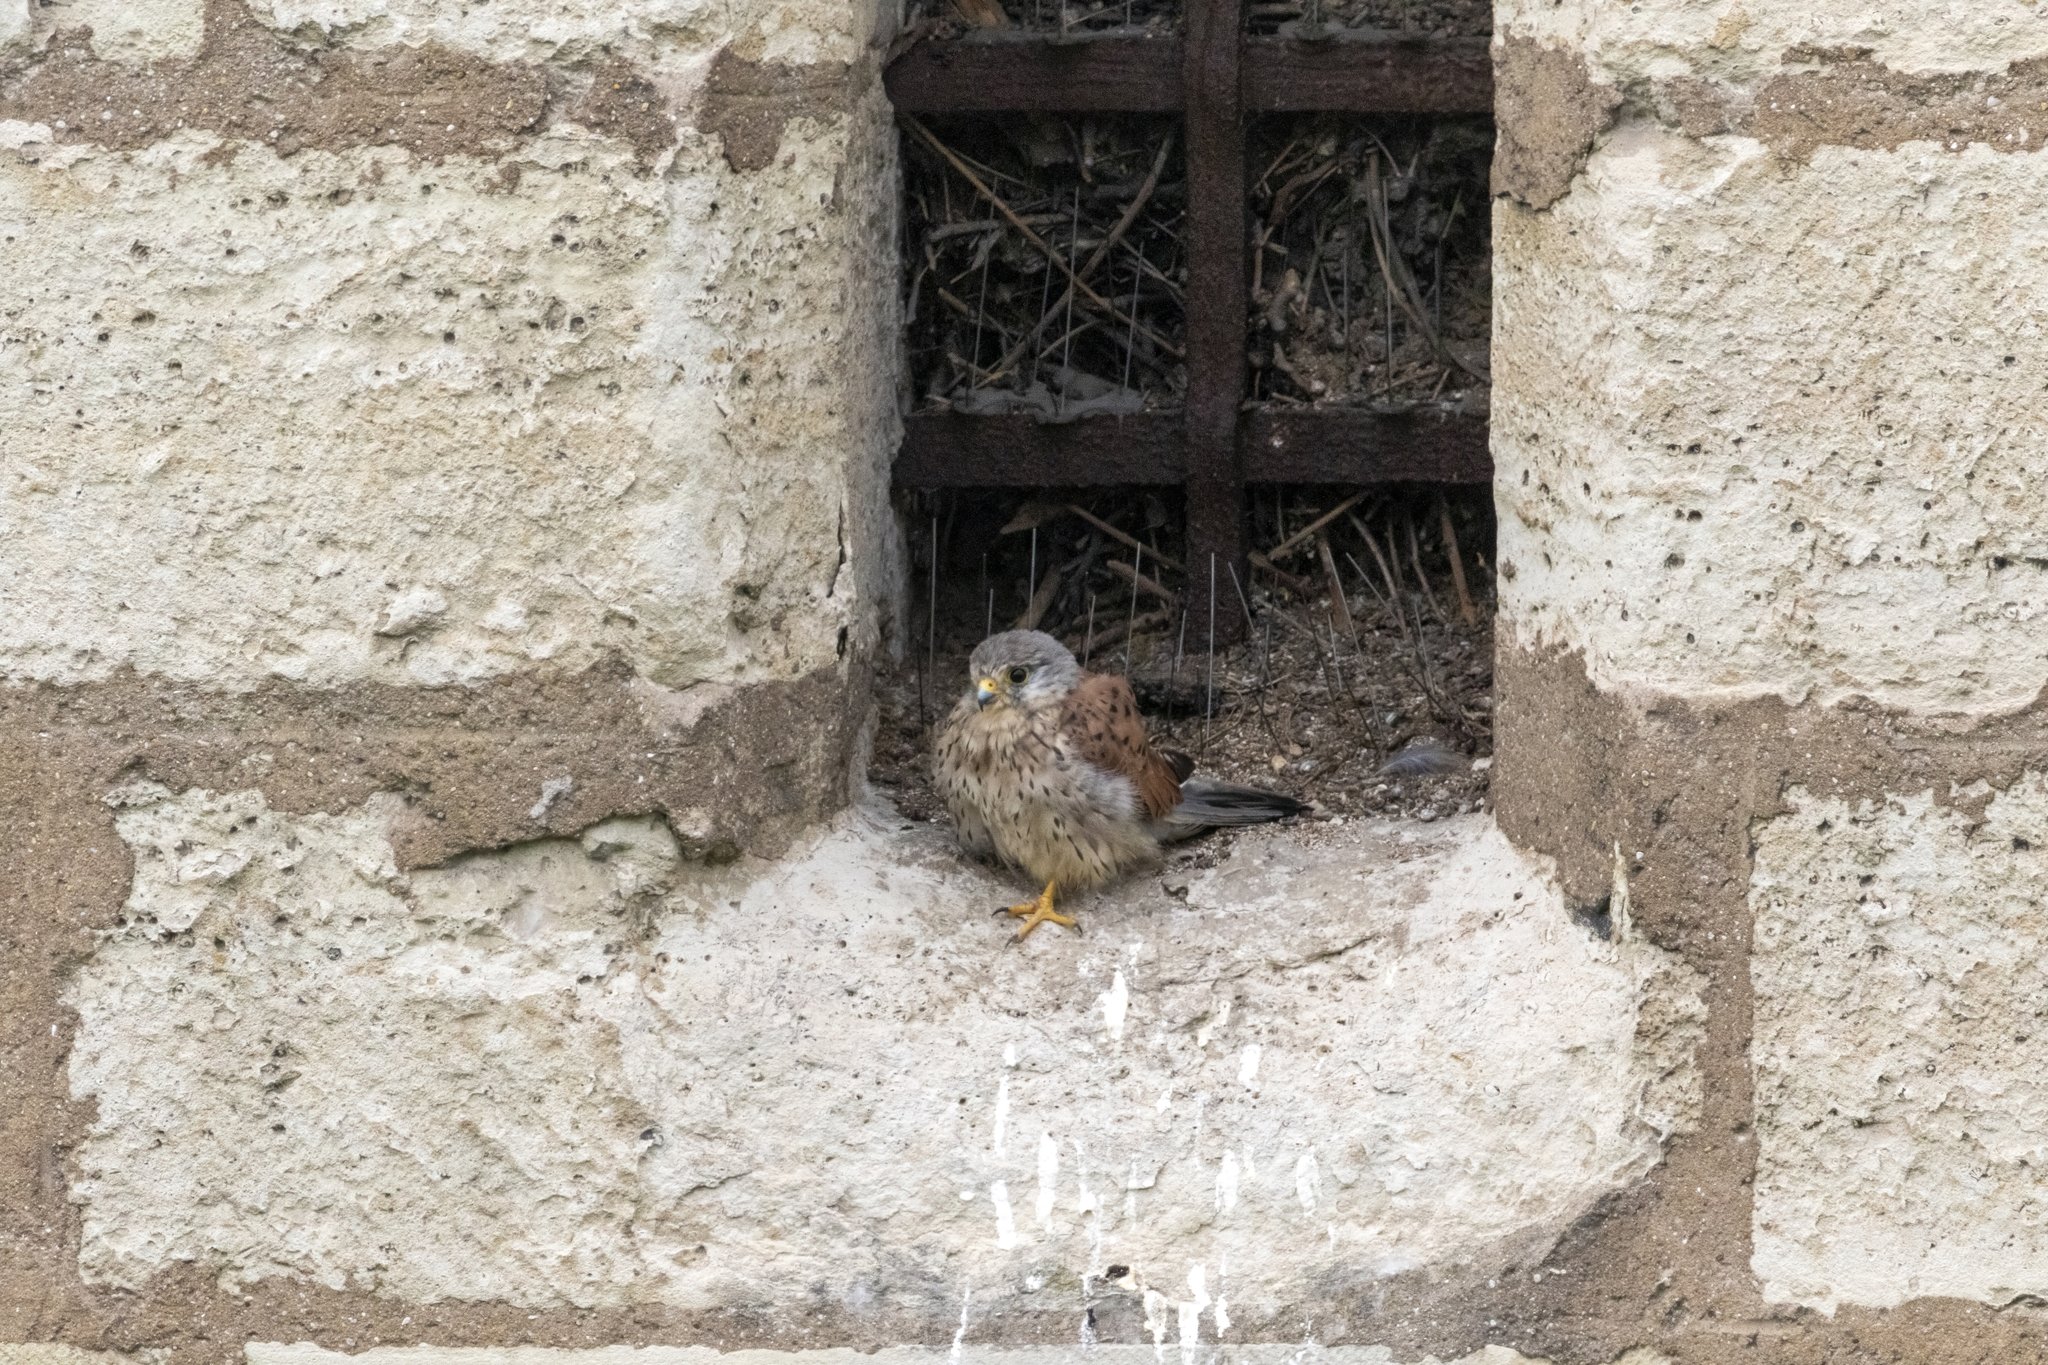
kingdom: Animalia
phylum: Chordata
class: Aves
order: Falconiformes
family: Falconidae
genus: Falco
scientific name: Falco tinnunculus
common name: Common kestrel
